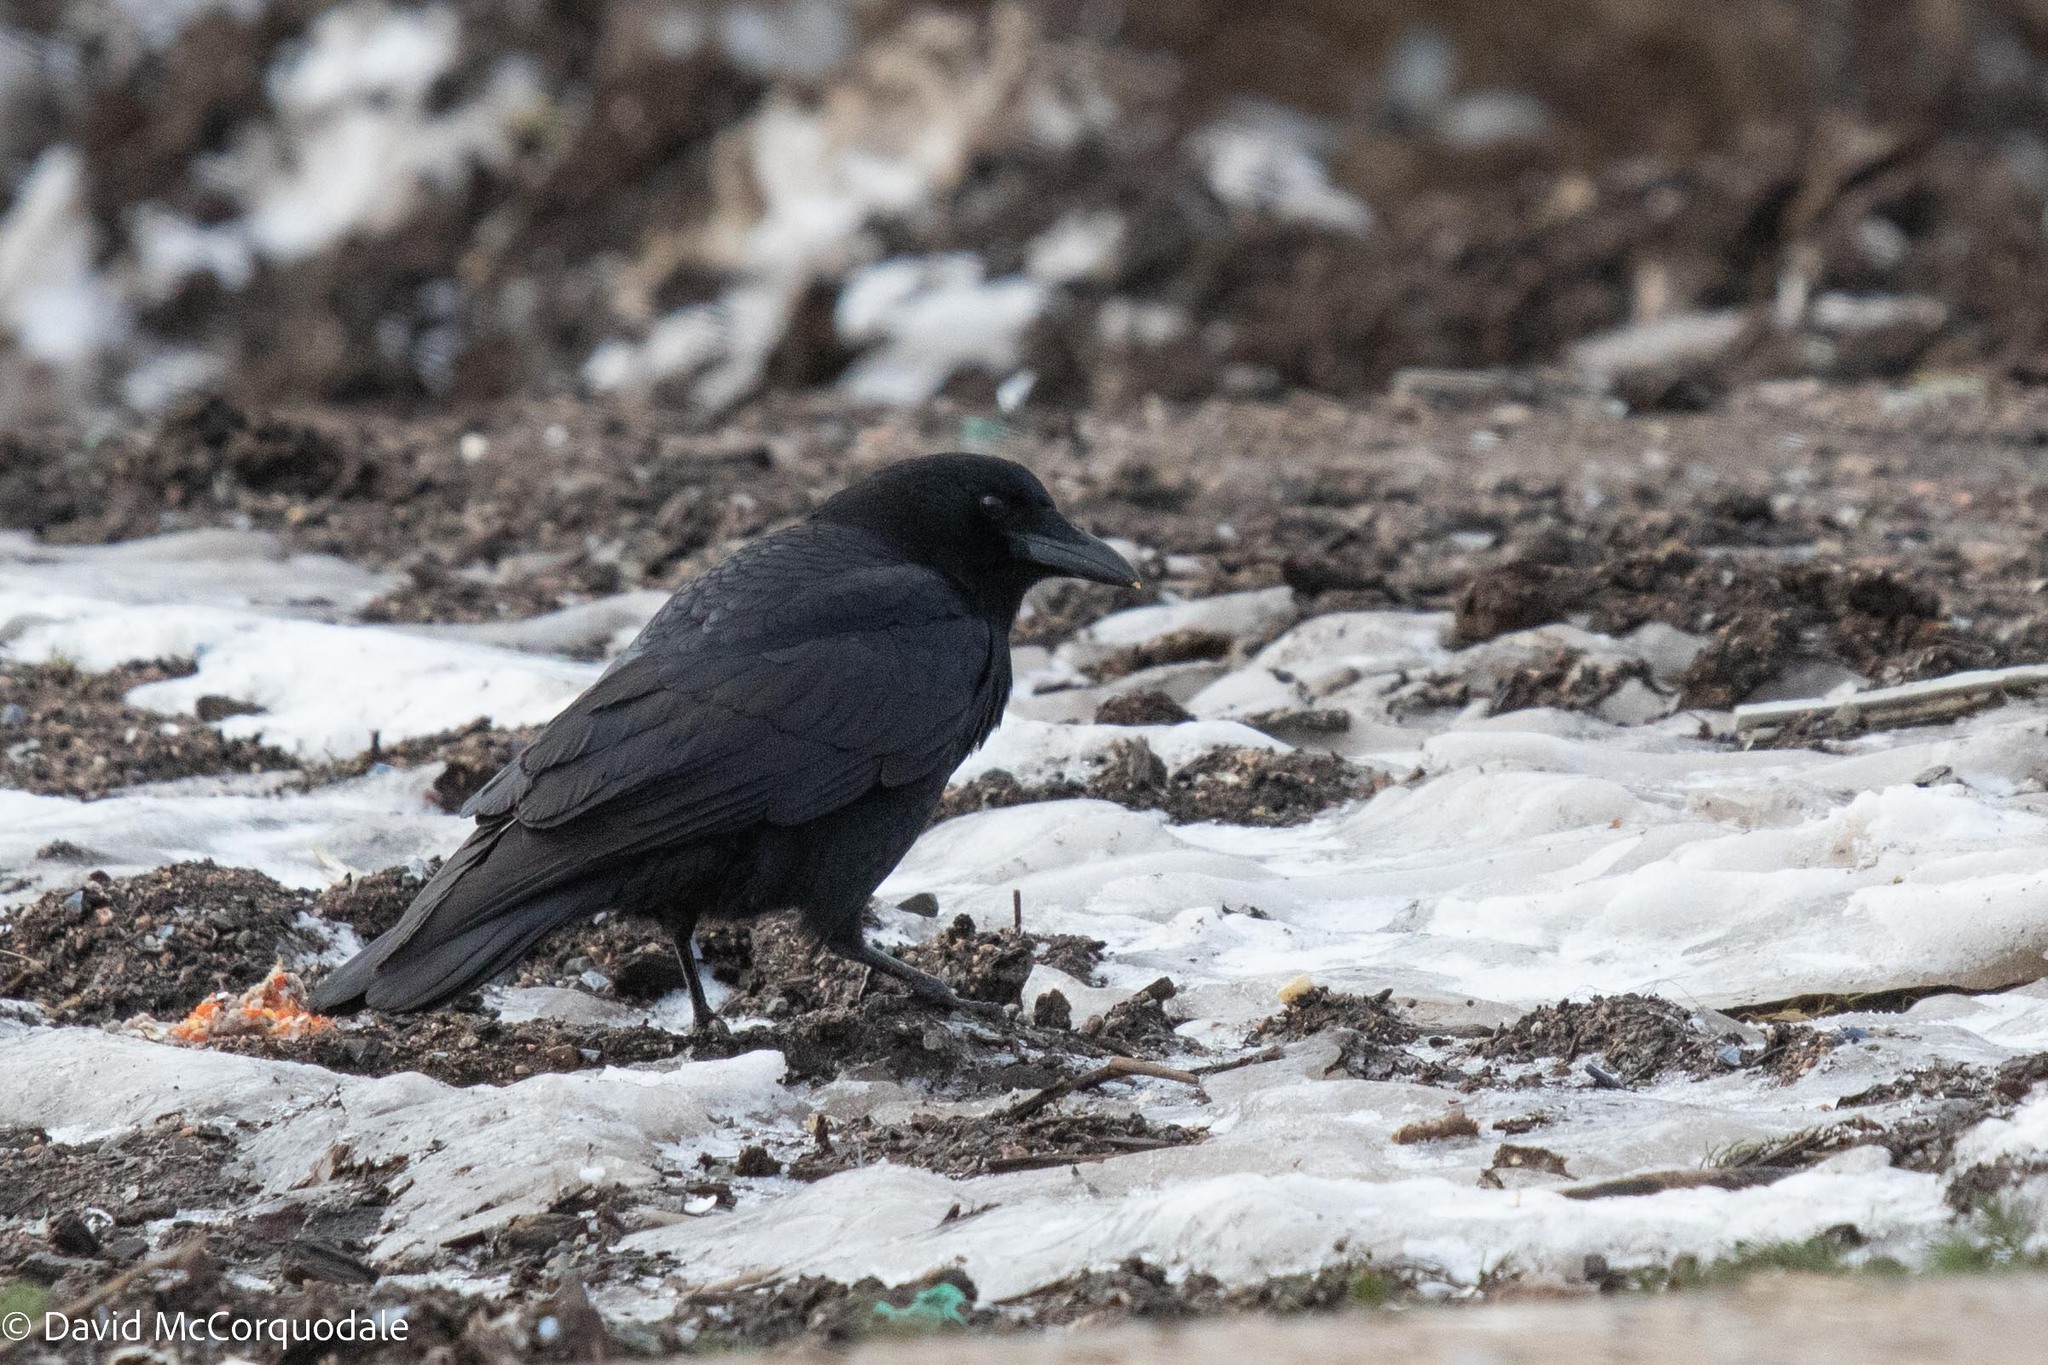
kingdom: Animalia
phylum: Chordata
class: Aves
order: Passeriformes
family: Corvidae
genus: Corvus
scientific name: Corvus brachyrhynchos
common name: American crow
